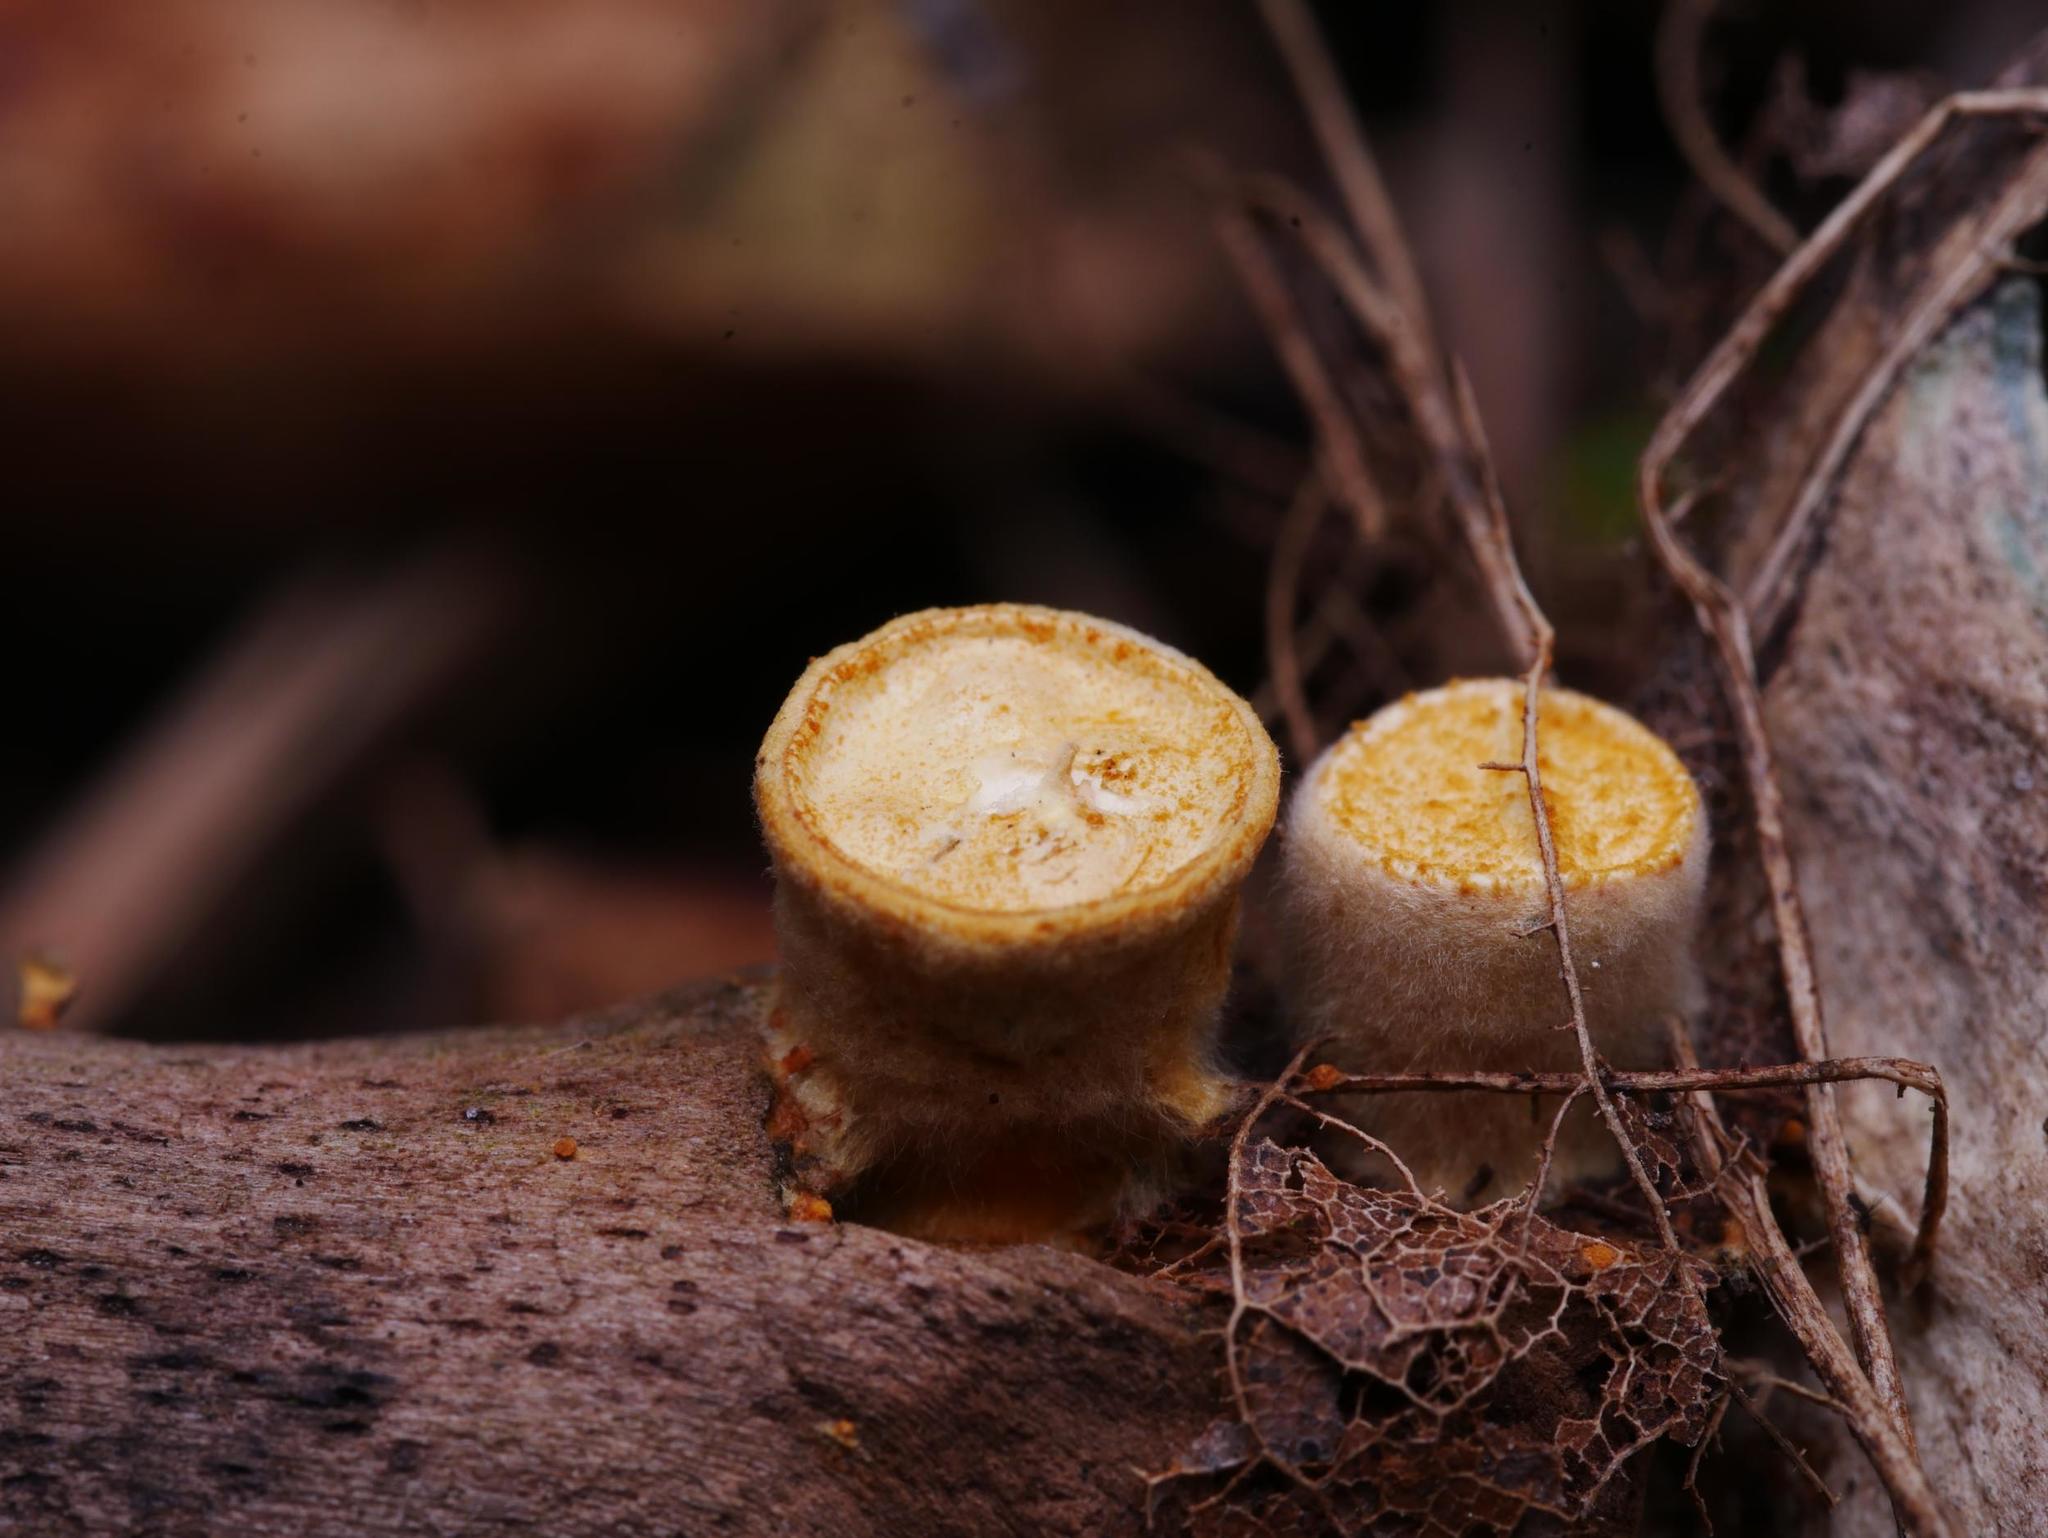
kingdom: Fungi
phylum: Basidiomycota
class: Agaricomycetes
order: Agaricales
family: Nidulariaceae
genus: Crucibulum
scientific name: Crucibulum laeve
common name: Common bird's nest
